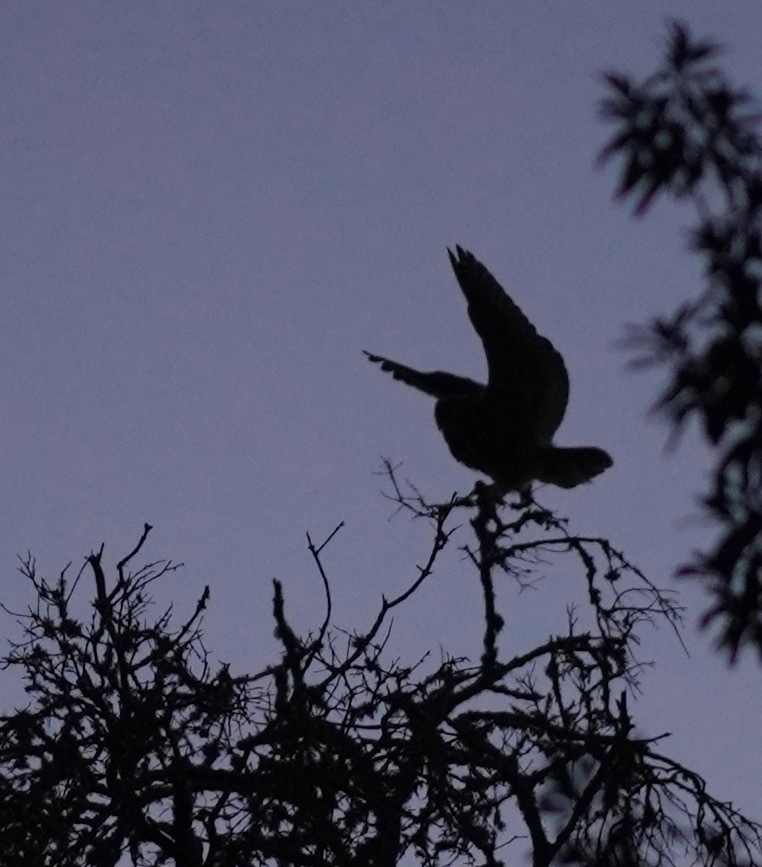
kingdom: Animalia
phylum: Chordata
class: Aves
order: Strigiformes
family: Strigidae
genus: Bubo
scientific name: Bubo virginianus
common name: Great horned owl
